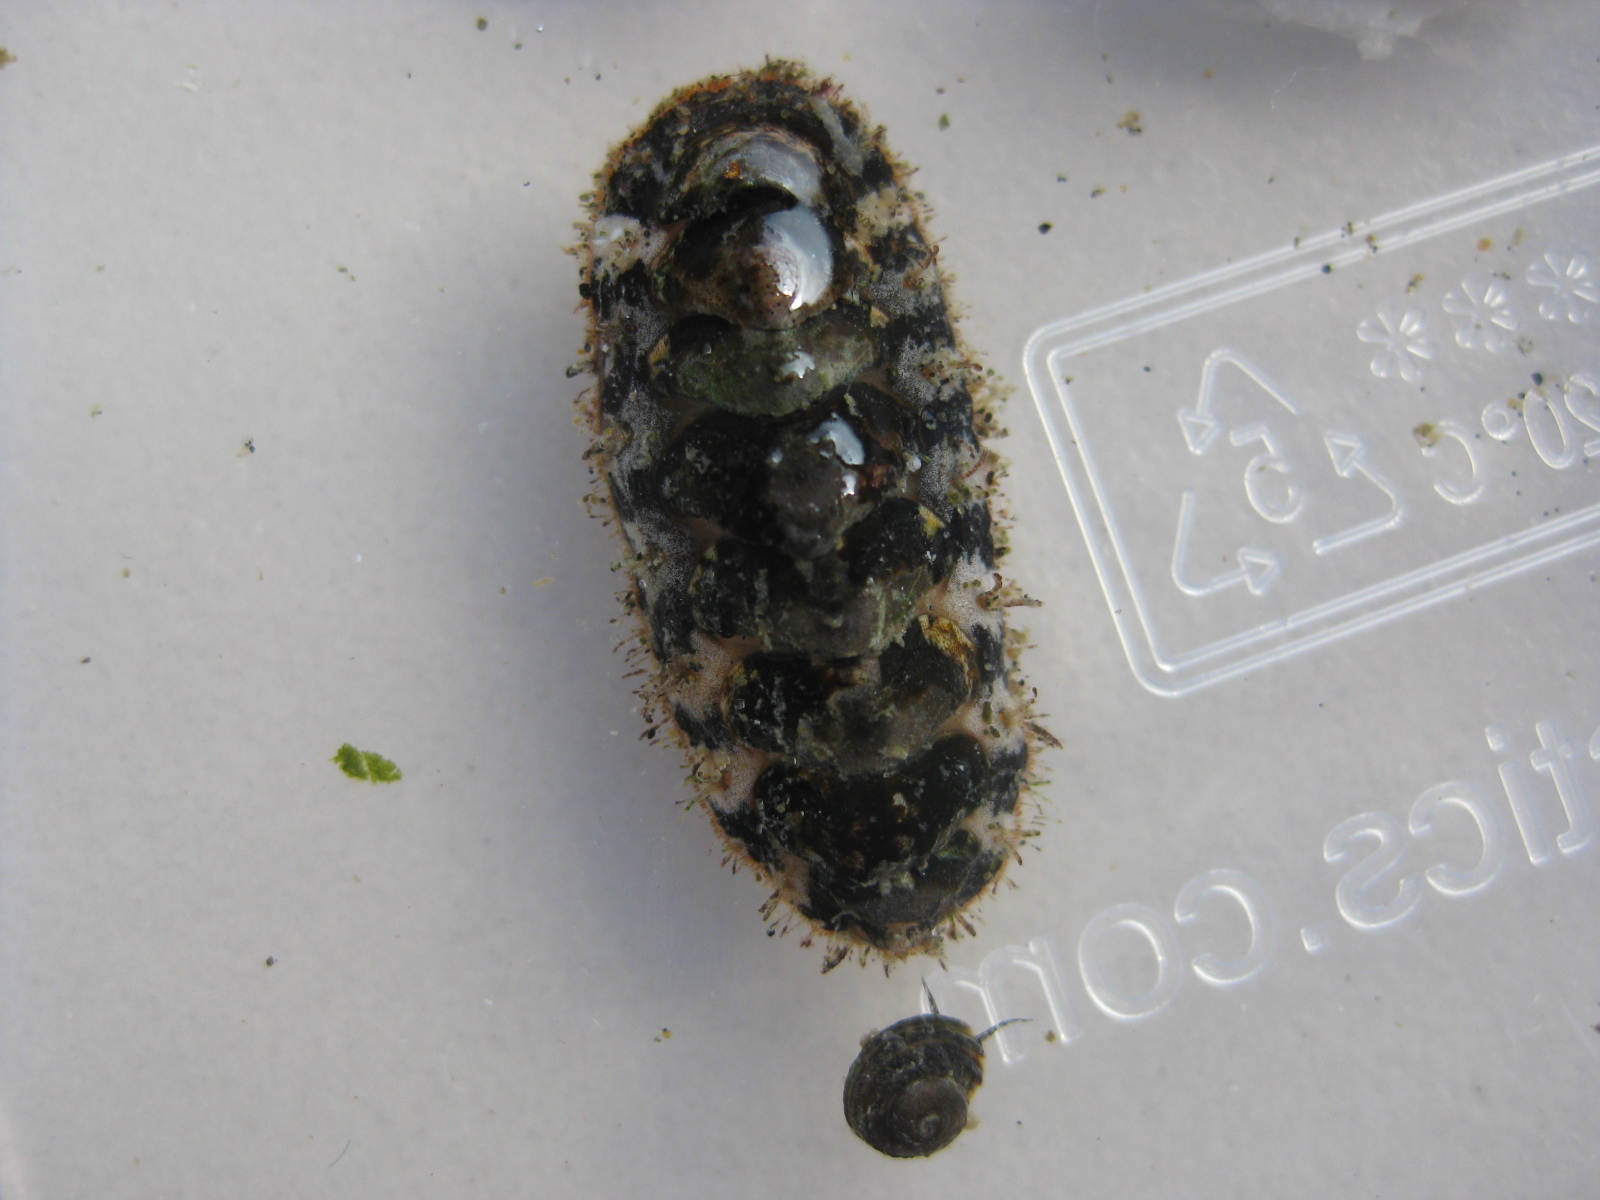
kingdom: Animalia
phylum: Mollusca
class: Polyplacophora
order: Chitonida
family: Mopaliidae
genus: Plaxiphora
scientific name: Plaxiphora caelata
